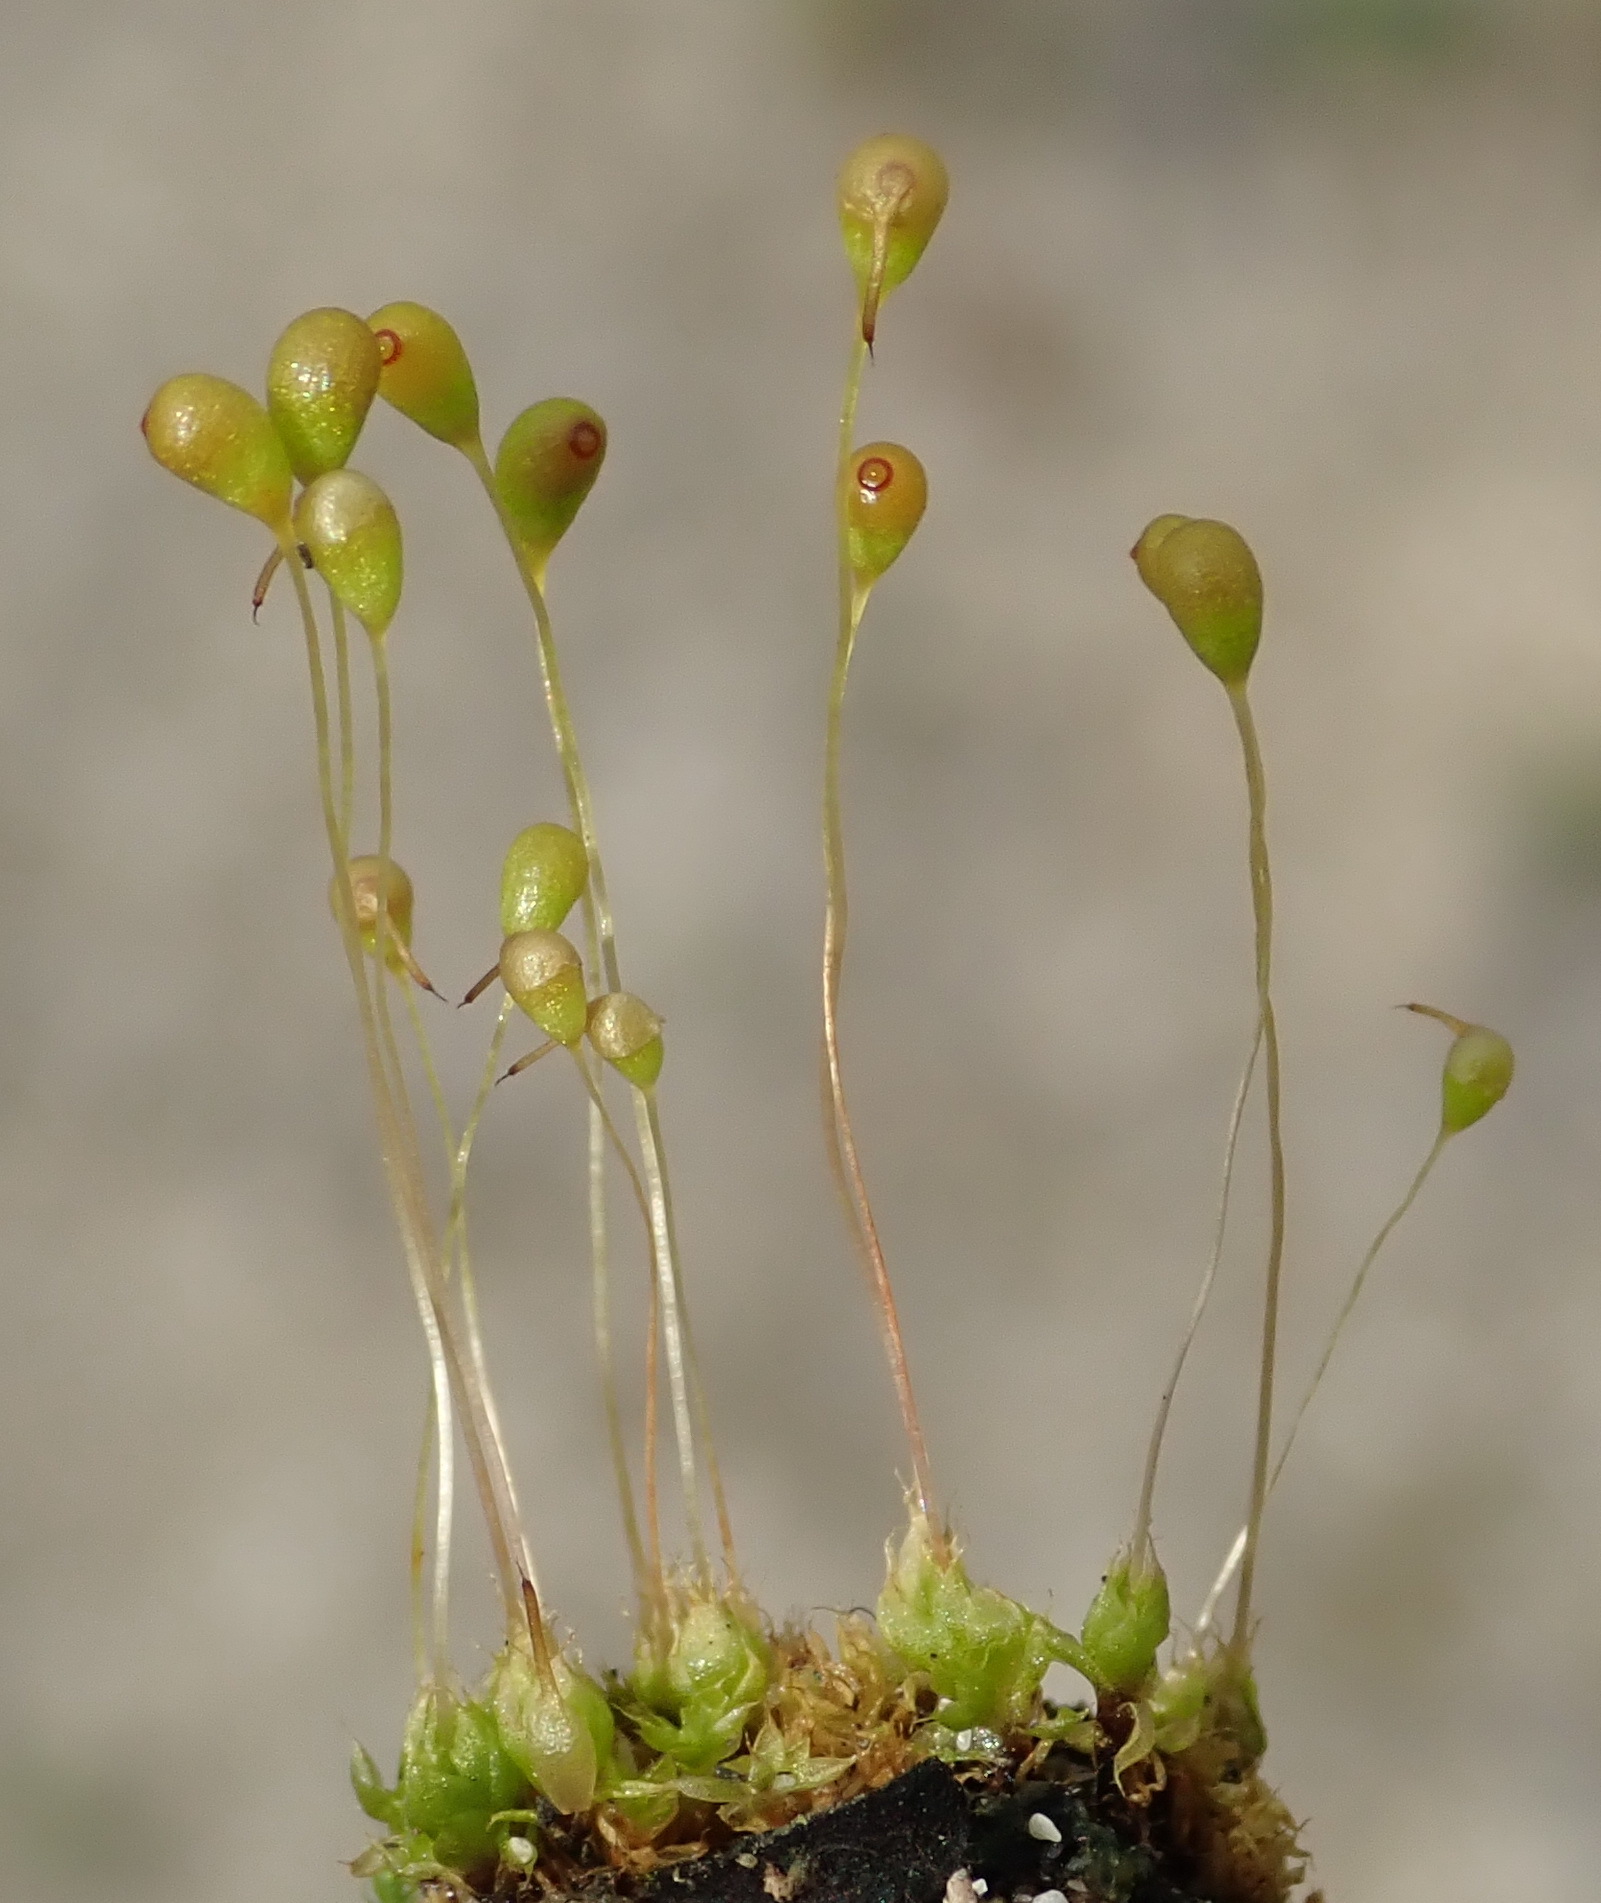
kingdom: Plantae
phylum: Bryophyta
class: Bryopsida
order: Funariales
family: Funariaceae
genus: Funaria
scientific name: Funaria hygrometrica
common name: Common cord moss
